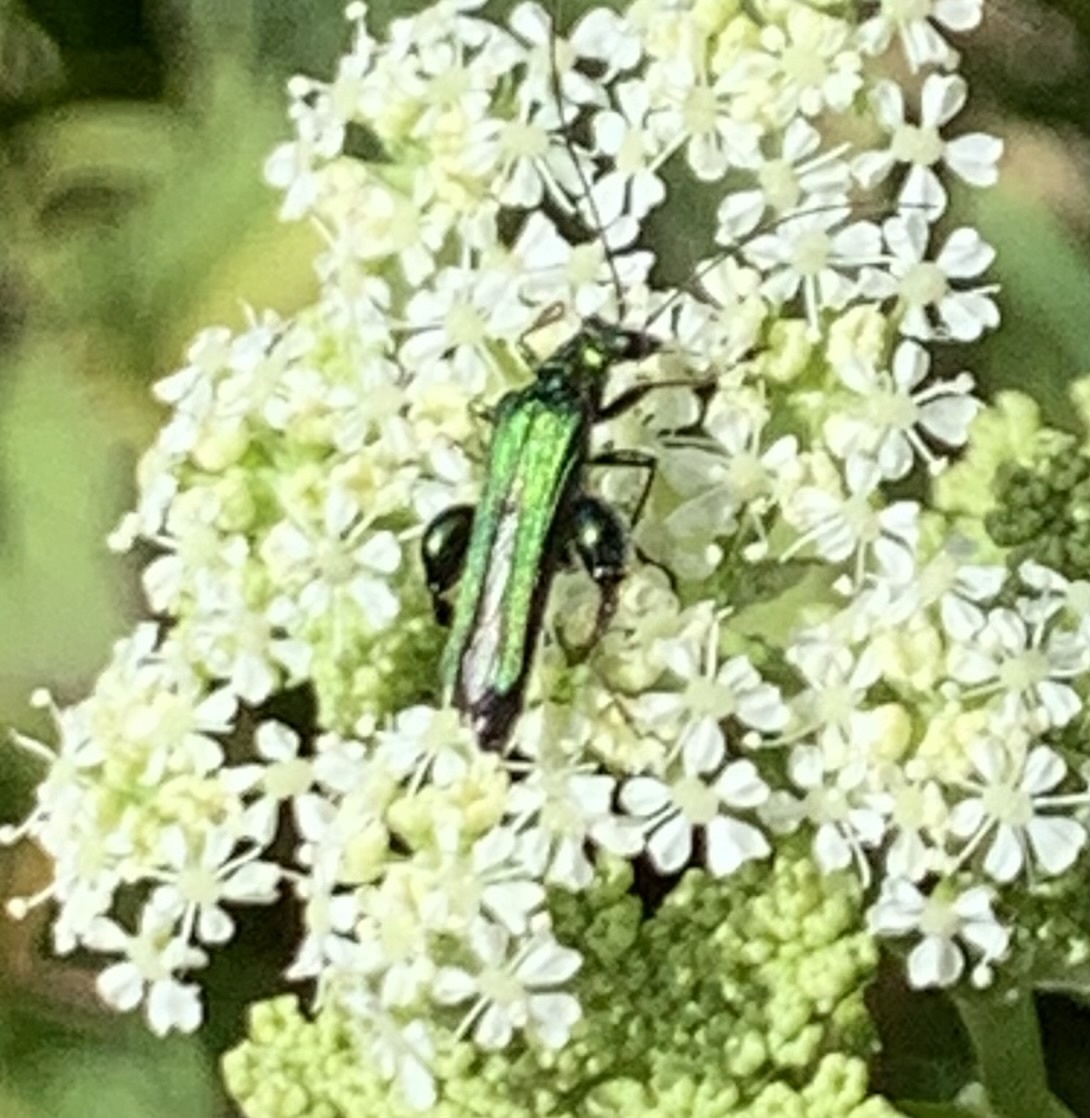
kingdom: Animalia
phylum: Arthropoda
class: Insecta
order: Coleoptera
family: Oedemeridae
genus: Oedemera
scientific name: Oedemera nobilis
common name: Swollen-thighed beetle
